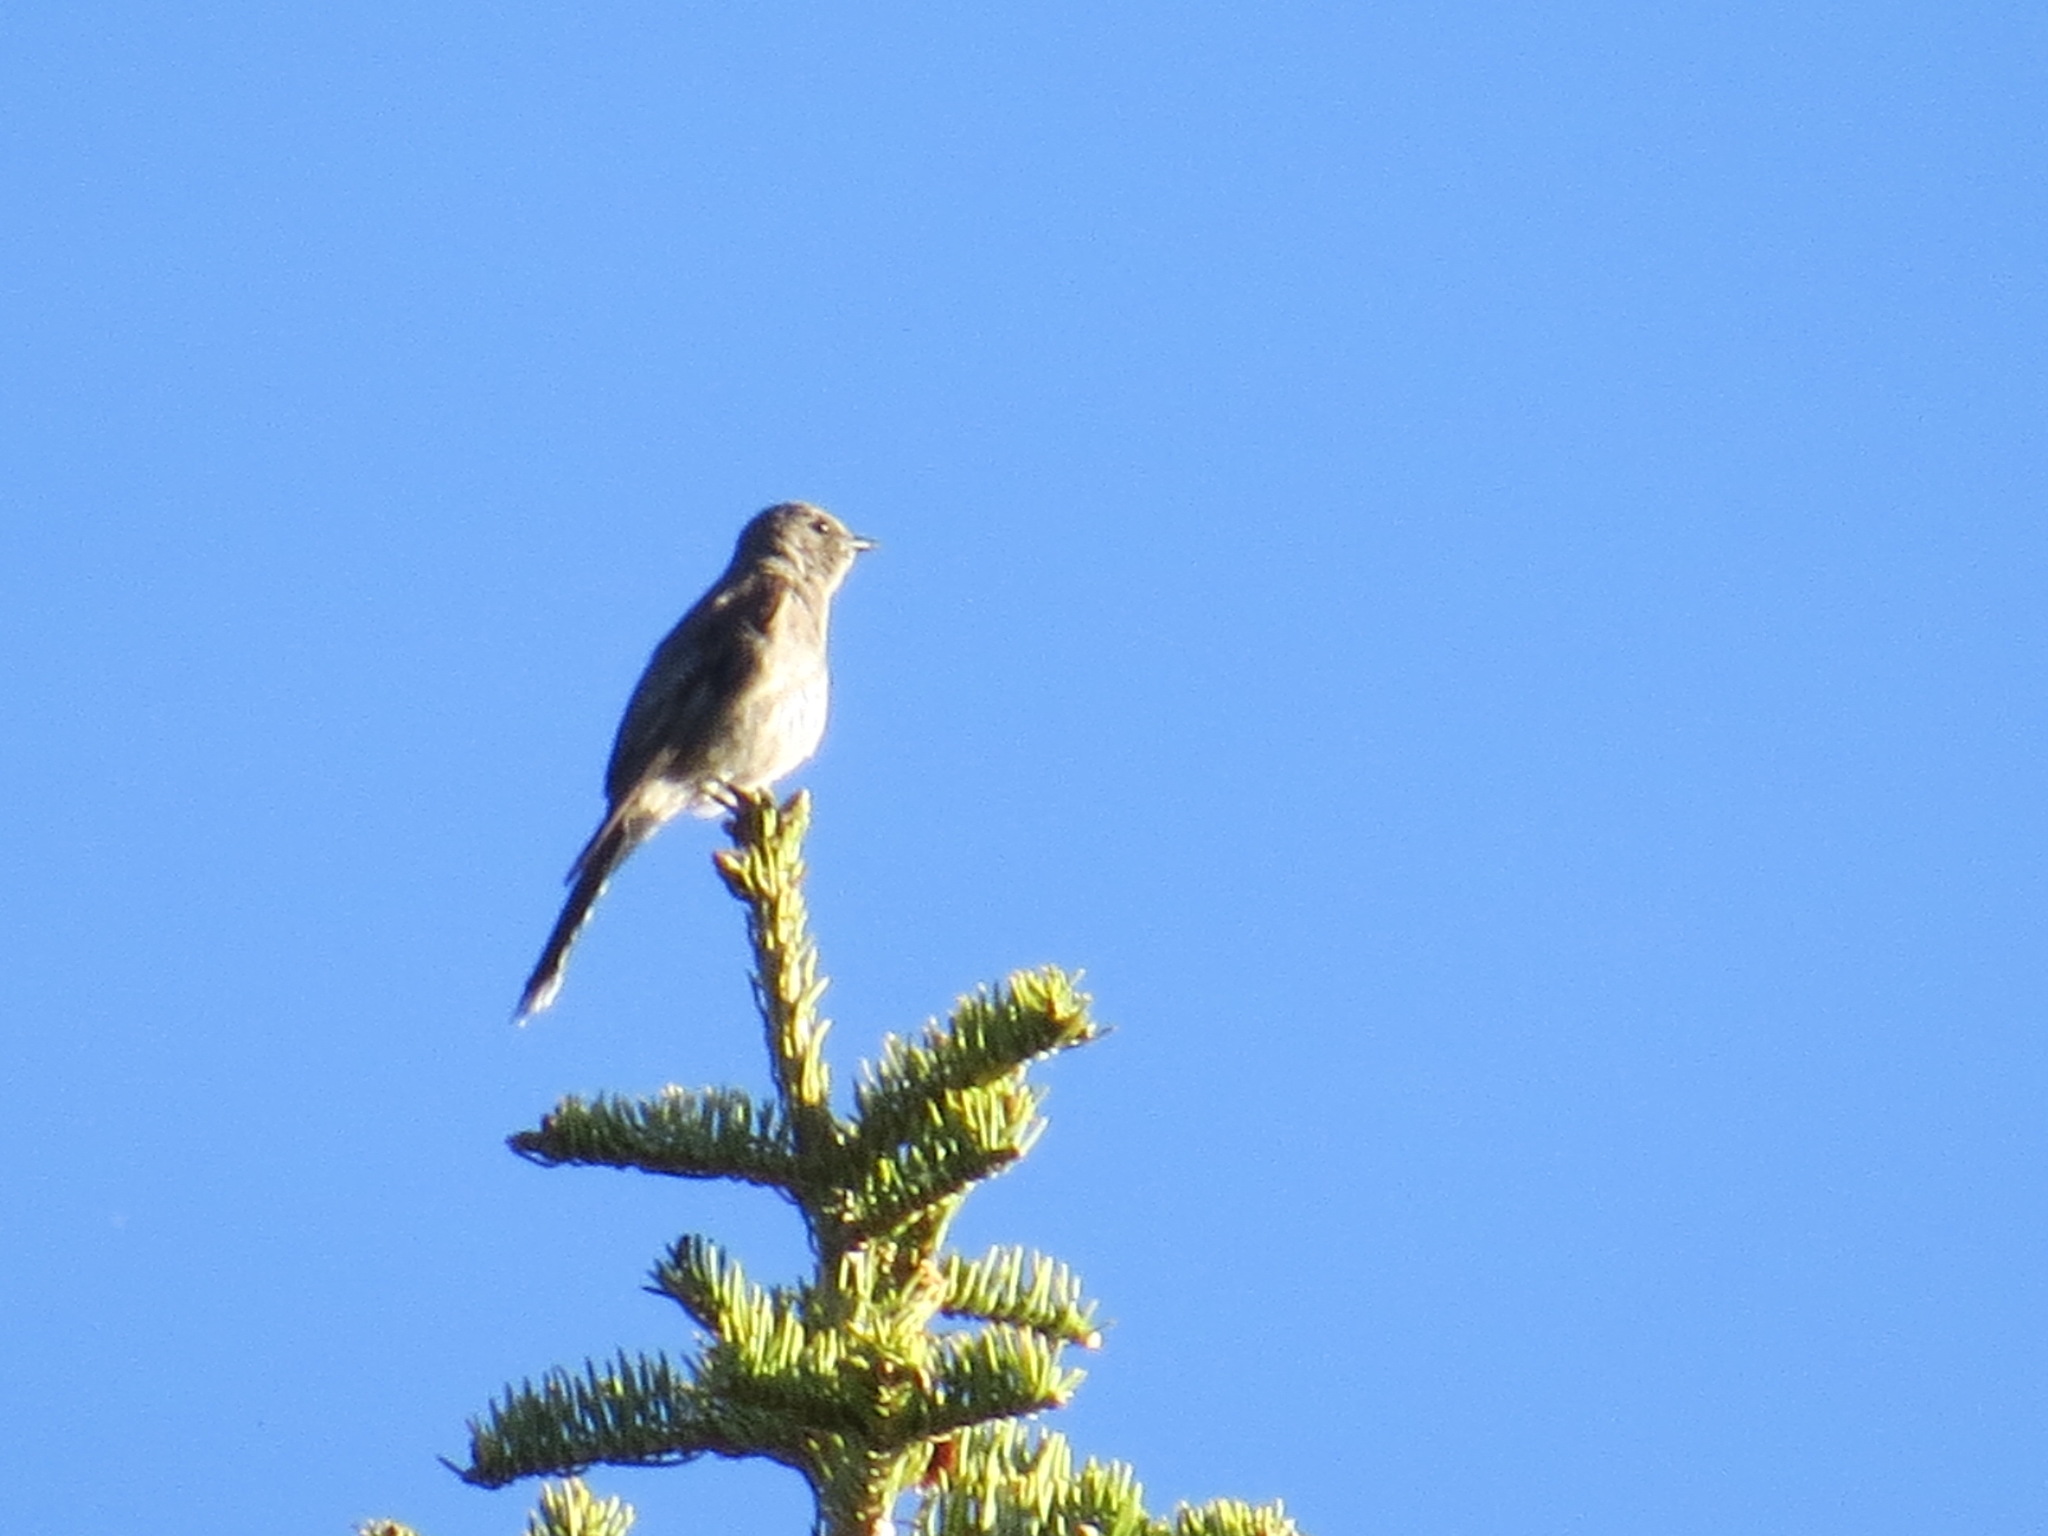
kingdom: Animalia
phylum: Chordata
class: Aves
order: Passeriformes
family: Turdidae
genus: Myadestes
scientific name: Myadestes townsendi
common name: Townsend's solitaire
